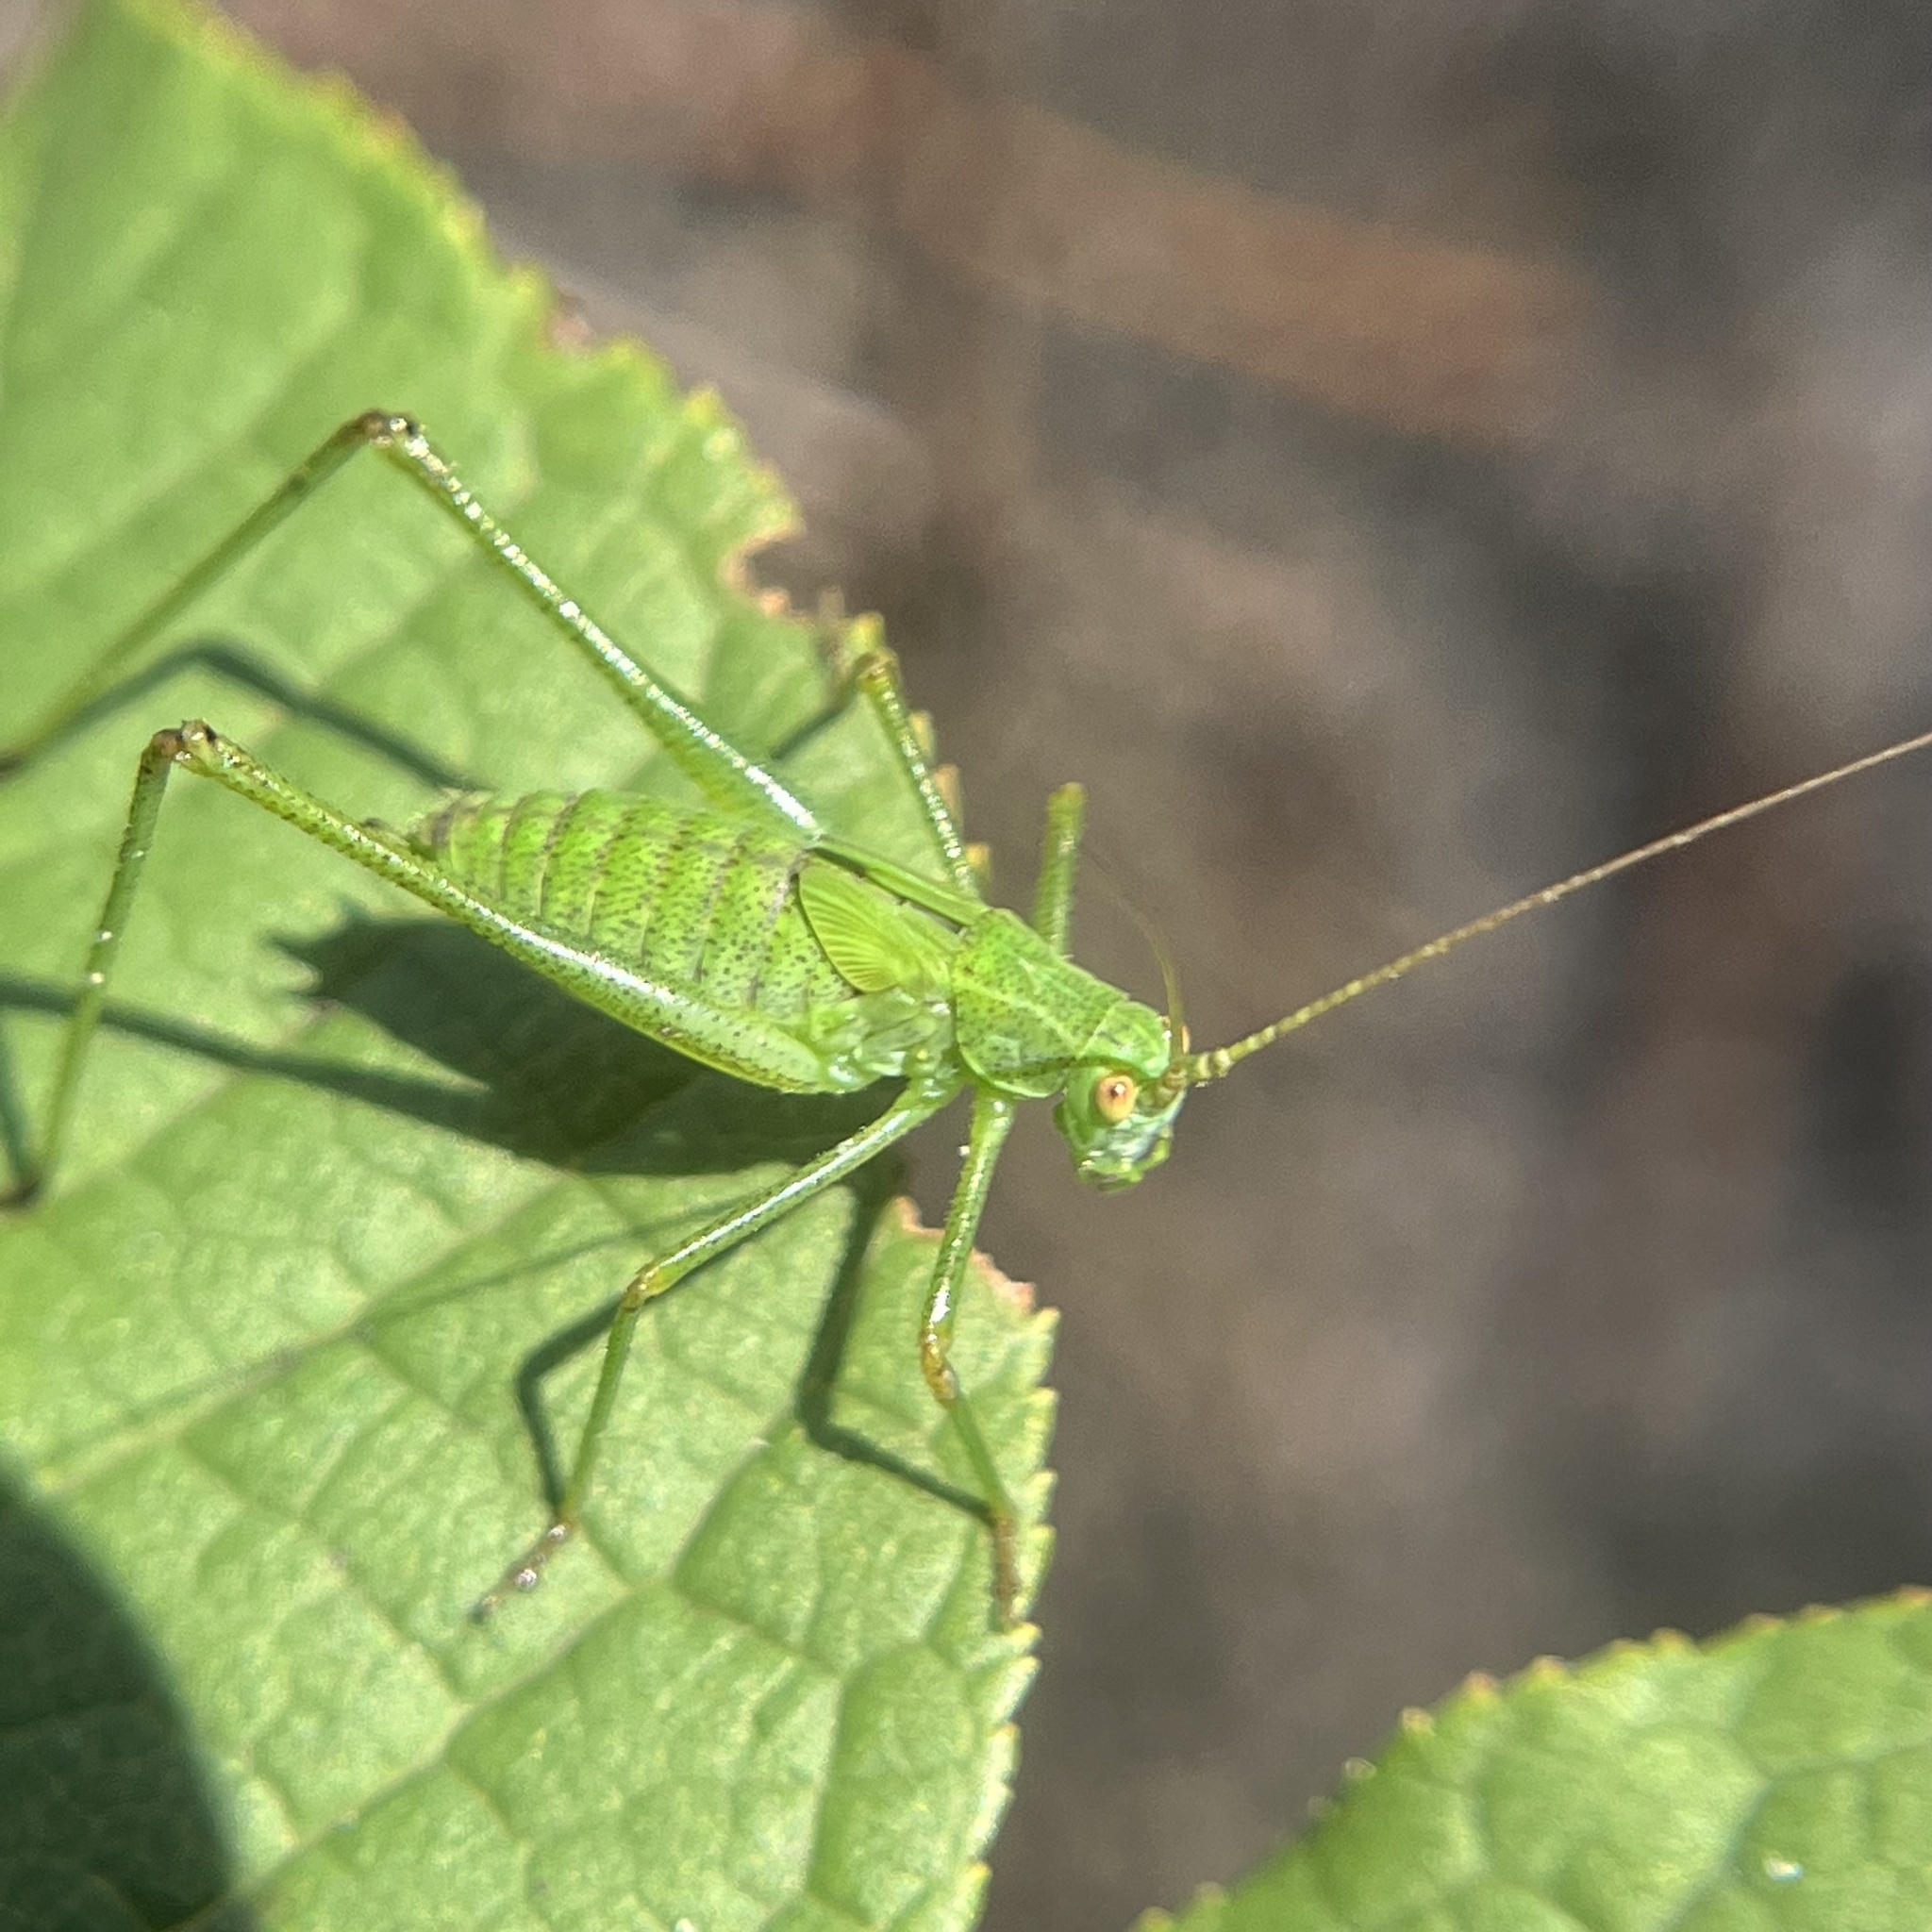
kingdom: Animalia
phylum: Arthropoda
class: Insecta
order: Orthoptera
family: Tettigoniidae
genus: Phaneroptera
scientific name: Phaneroptera falcata
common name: Sickle-bearing bush-cricket
